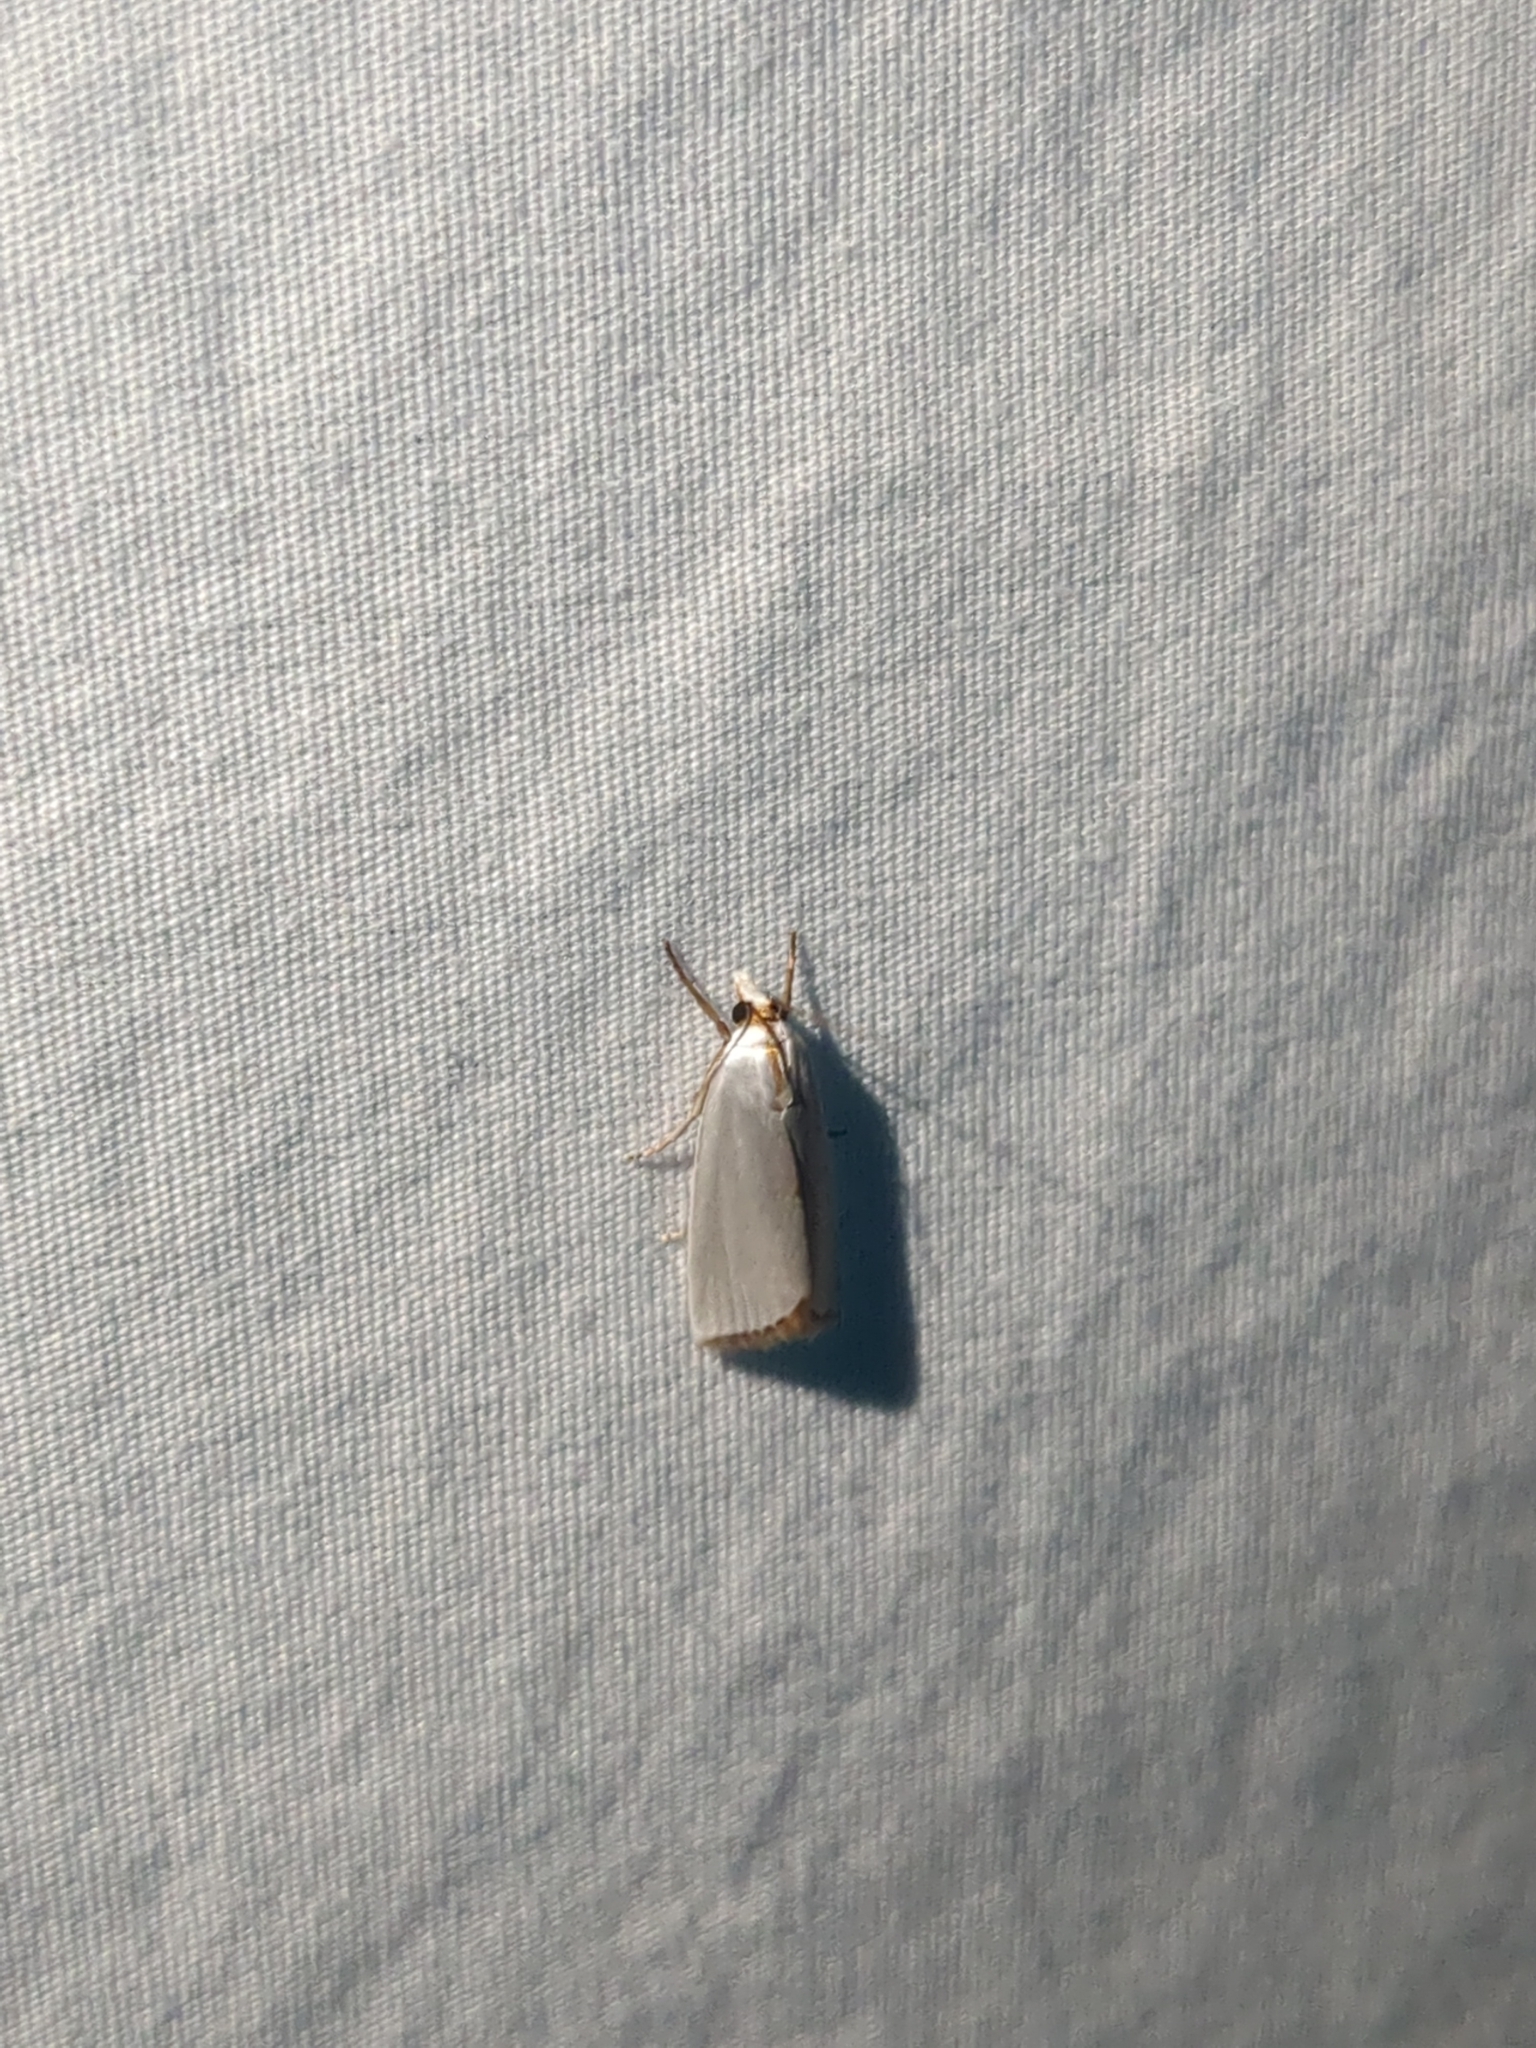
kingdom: Animalia
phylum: Arthropoda
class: Insecta
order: Lepidoptera
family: Crambidae
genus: Argyria
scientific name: Argyria nivalis
